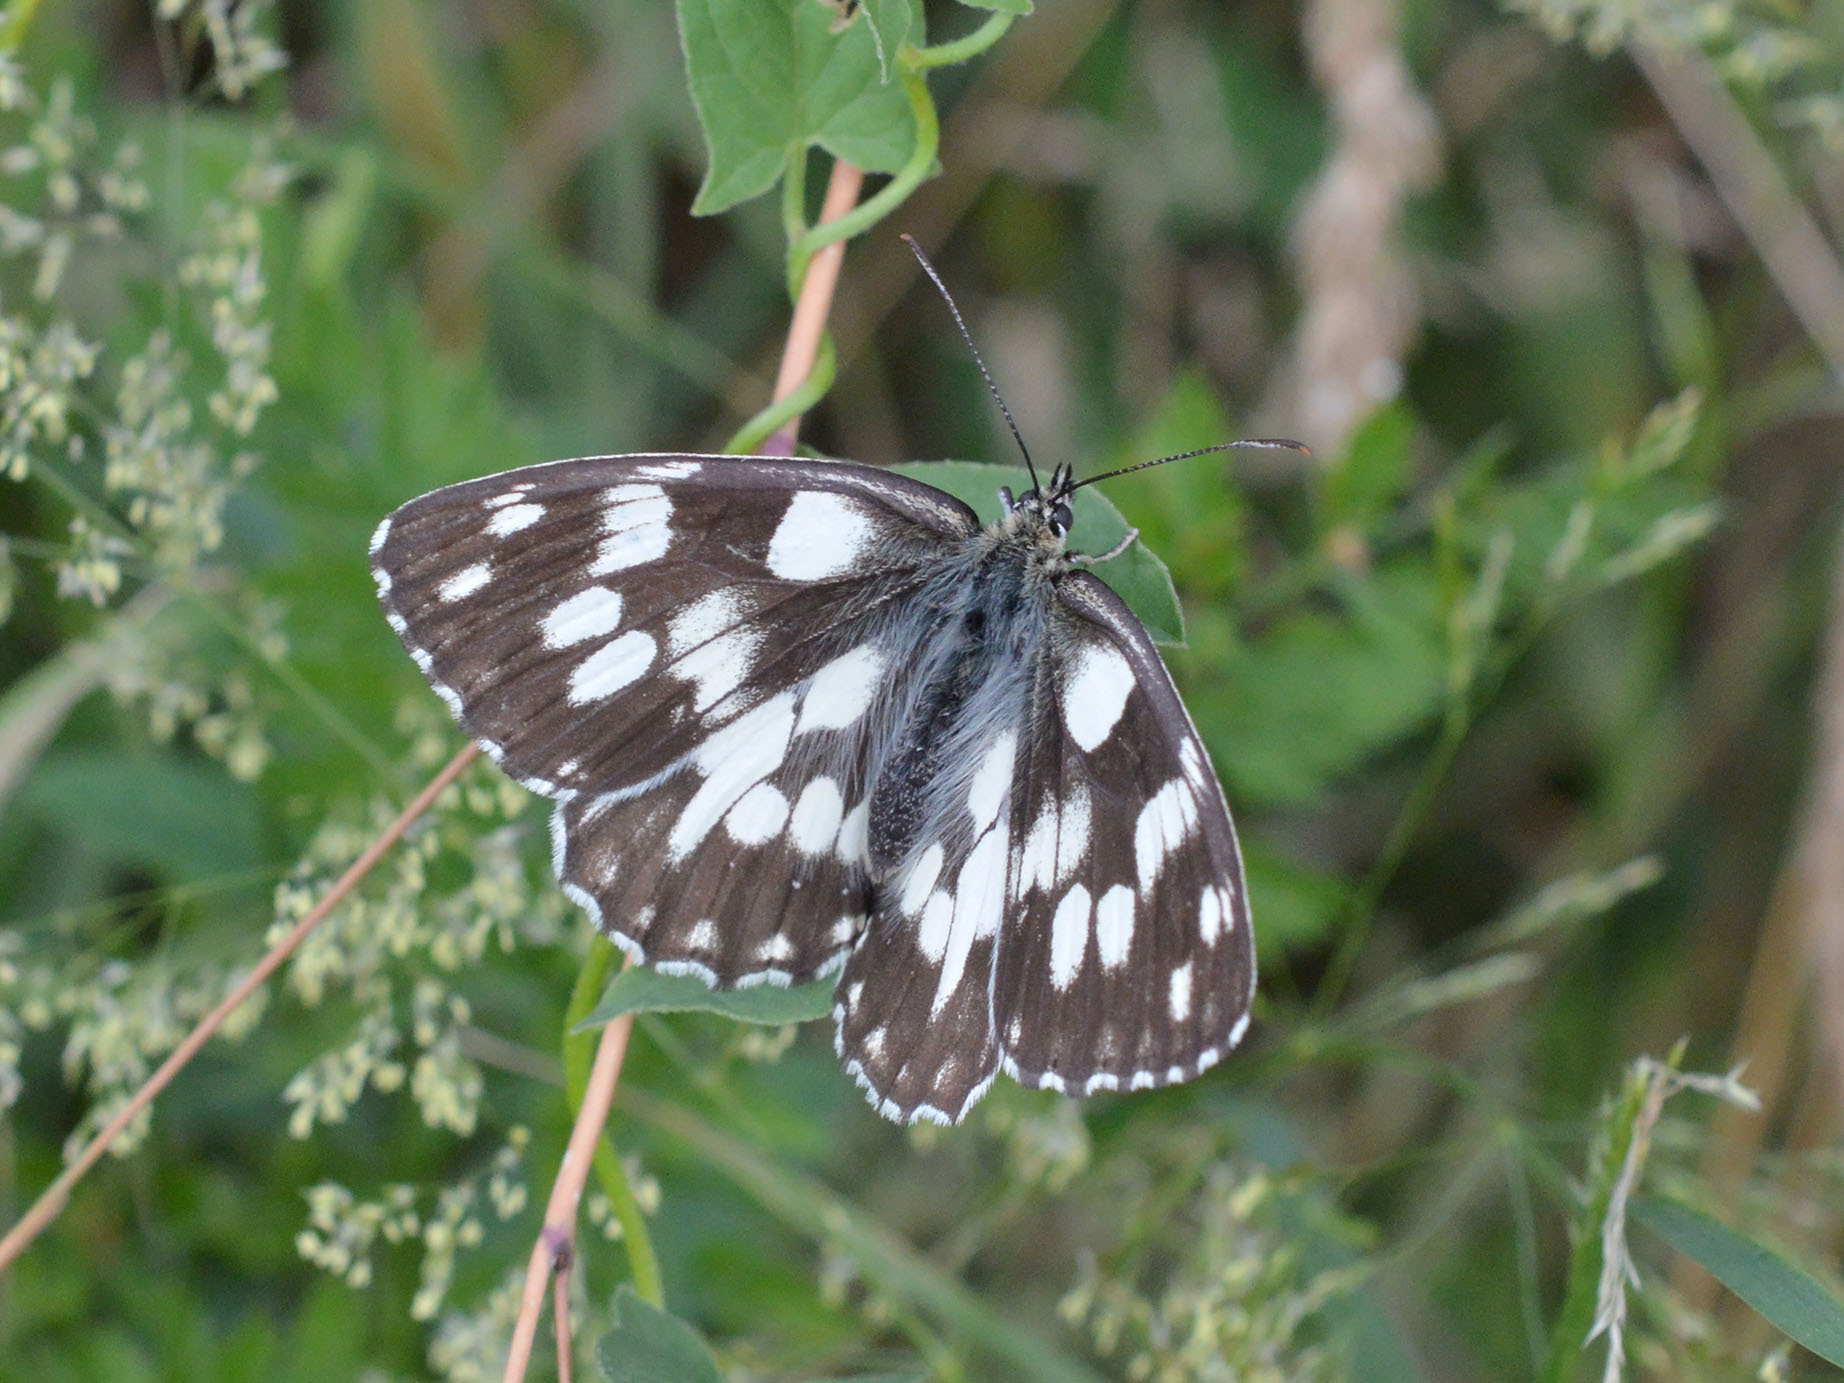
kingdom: Animalia
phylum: Arthropoda
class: Insecta
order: Lepidoptera
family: Nymphalidae
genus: Melanargia
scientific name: Melanargia galathea
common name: Marbled white
